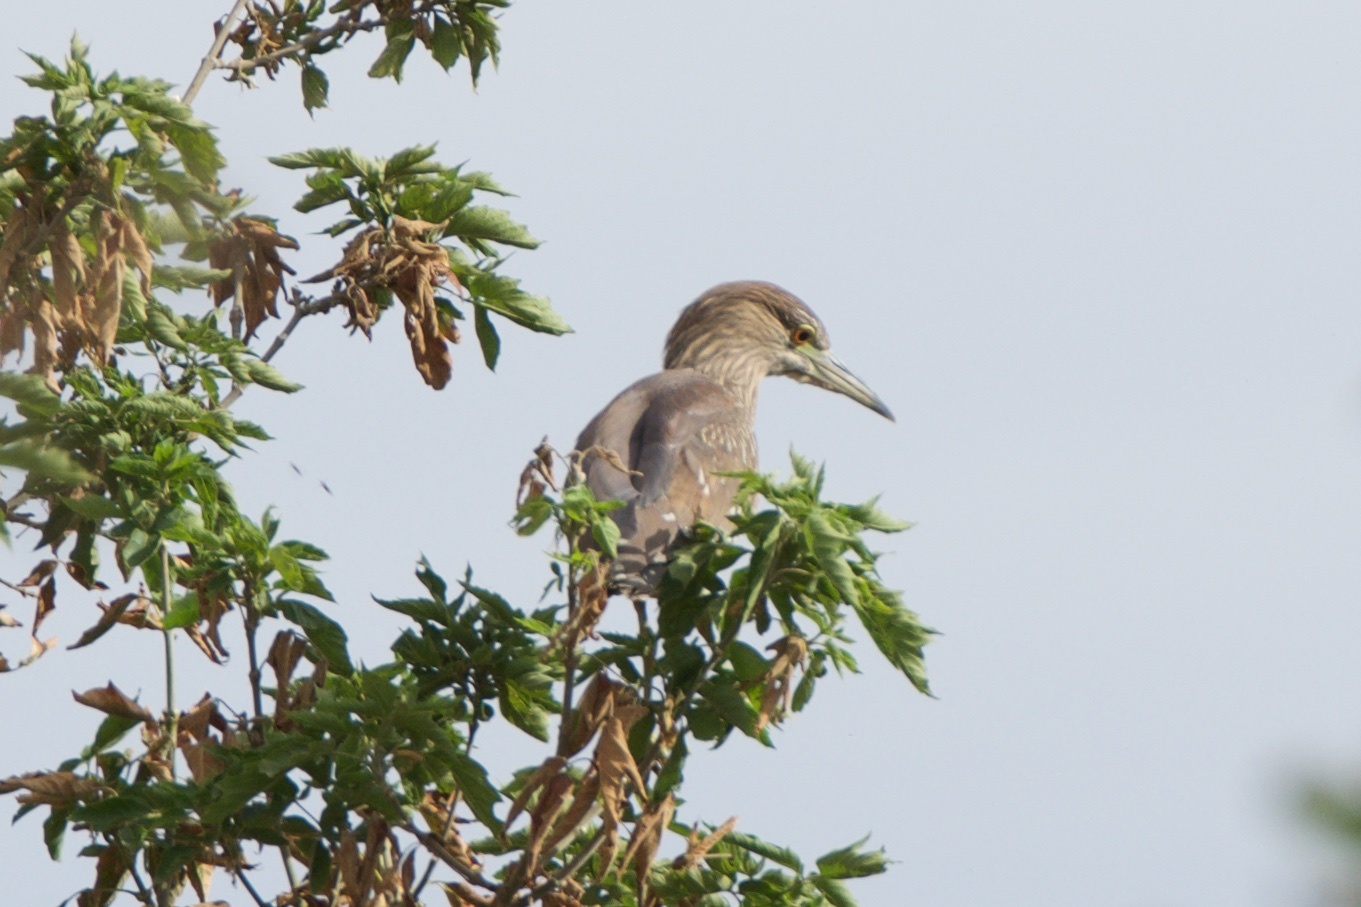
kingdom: Animalia
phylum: Chordata
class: Aves
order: Pelecaniformes
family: Ardeidae
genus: Nycticorax
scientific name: Nycticorax nycticorax
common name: Black-crowned night heron
